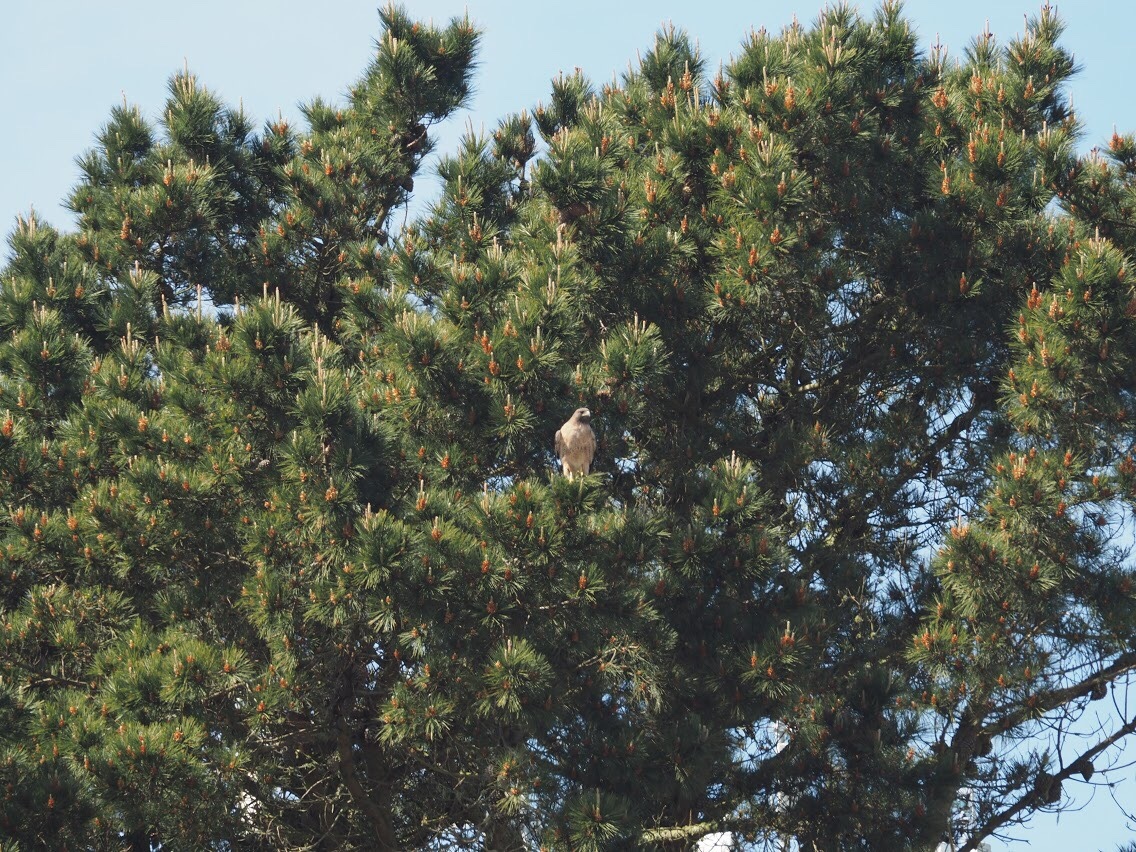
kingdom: Animalia
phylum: Chordata
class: Aves
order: Accipitriformes
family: Accipitridae
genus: Buteo
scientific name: Buteo jamaicensis
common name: Red-tailed hawk
